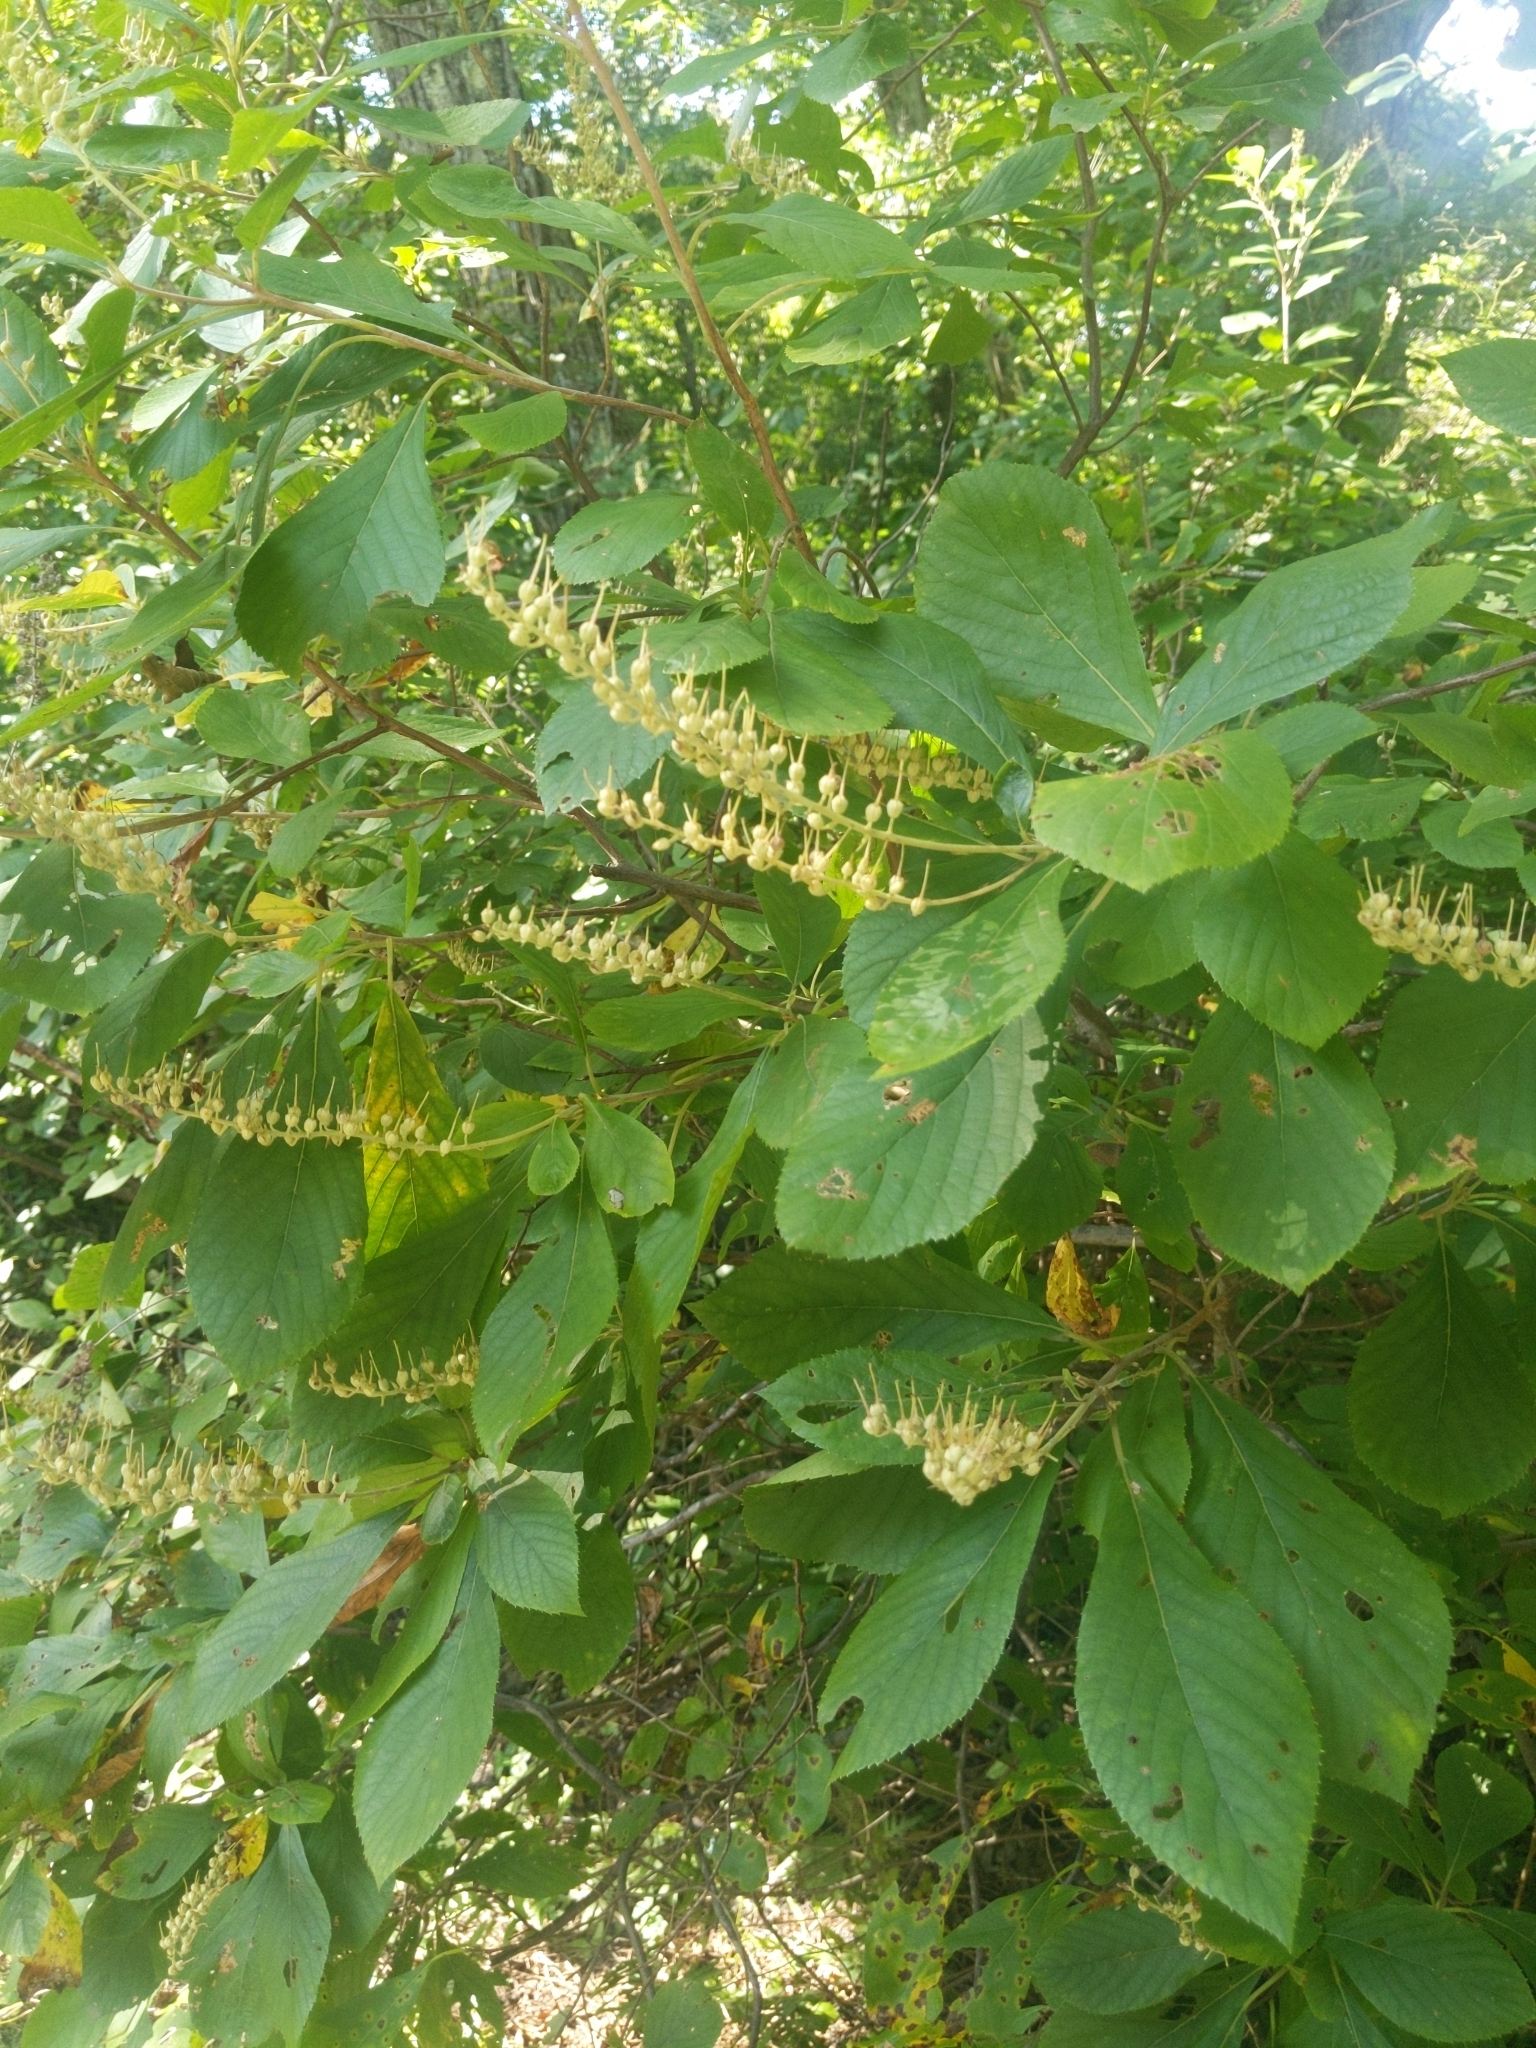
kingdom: Plantae
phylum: Tracheophyta
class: Magnoliopsida
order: Ericales
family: Clethraceae
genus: Clethra
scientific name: Clethra alnifolia
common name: Sweet pepperbush
